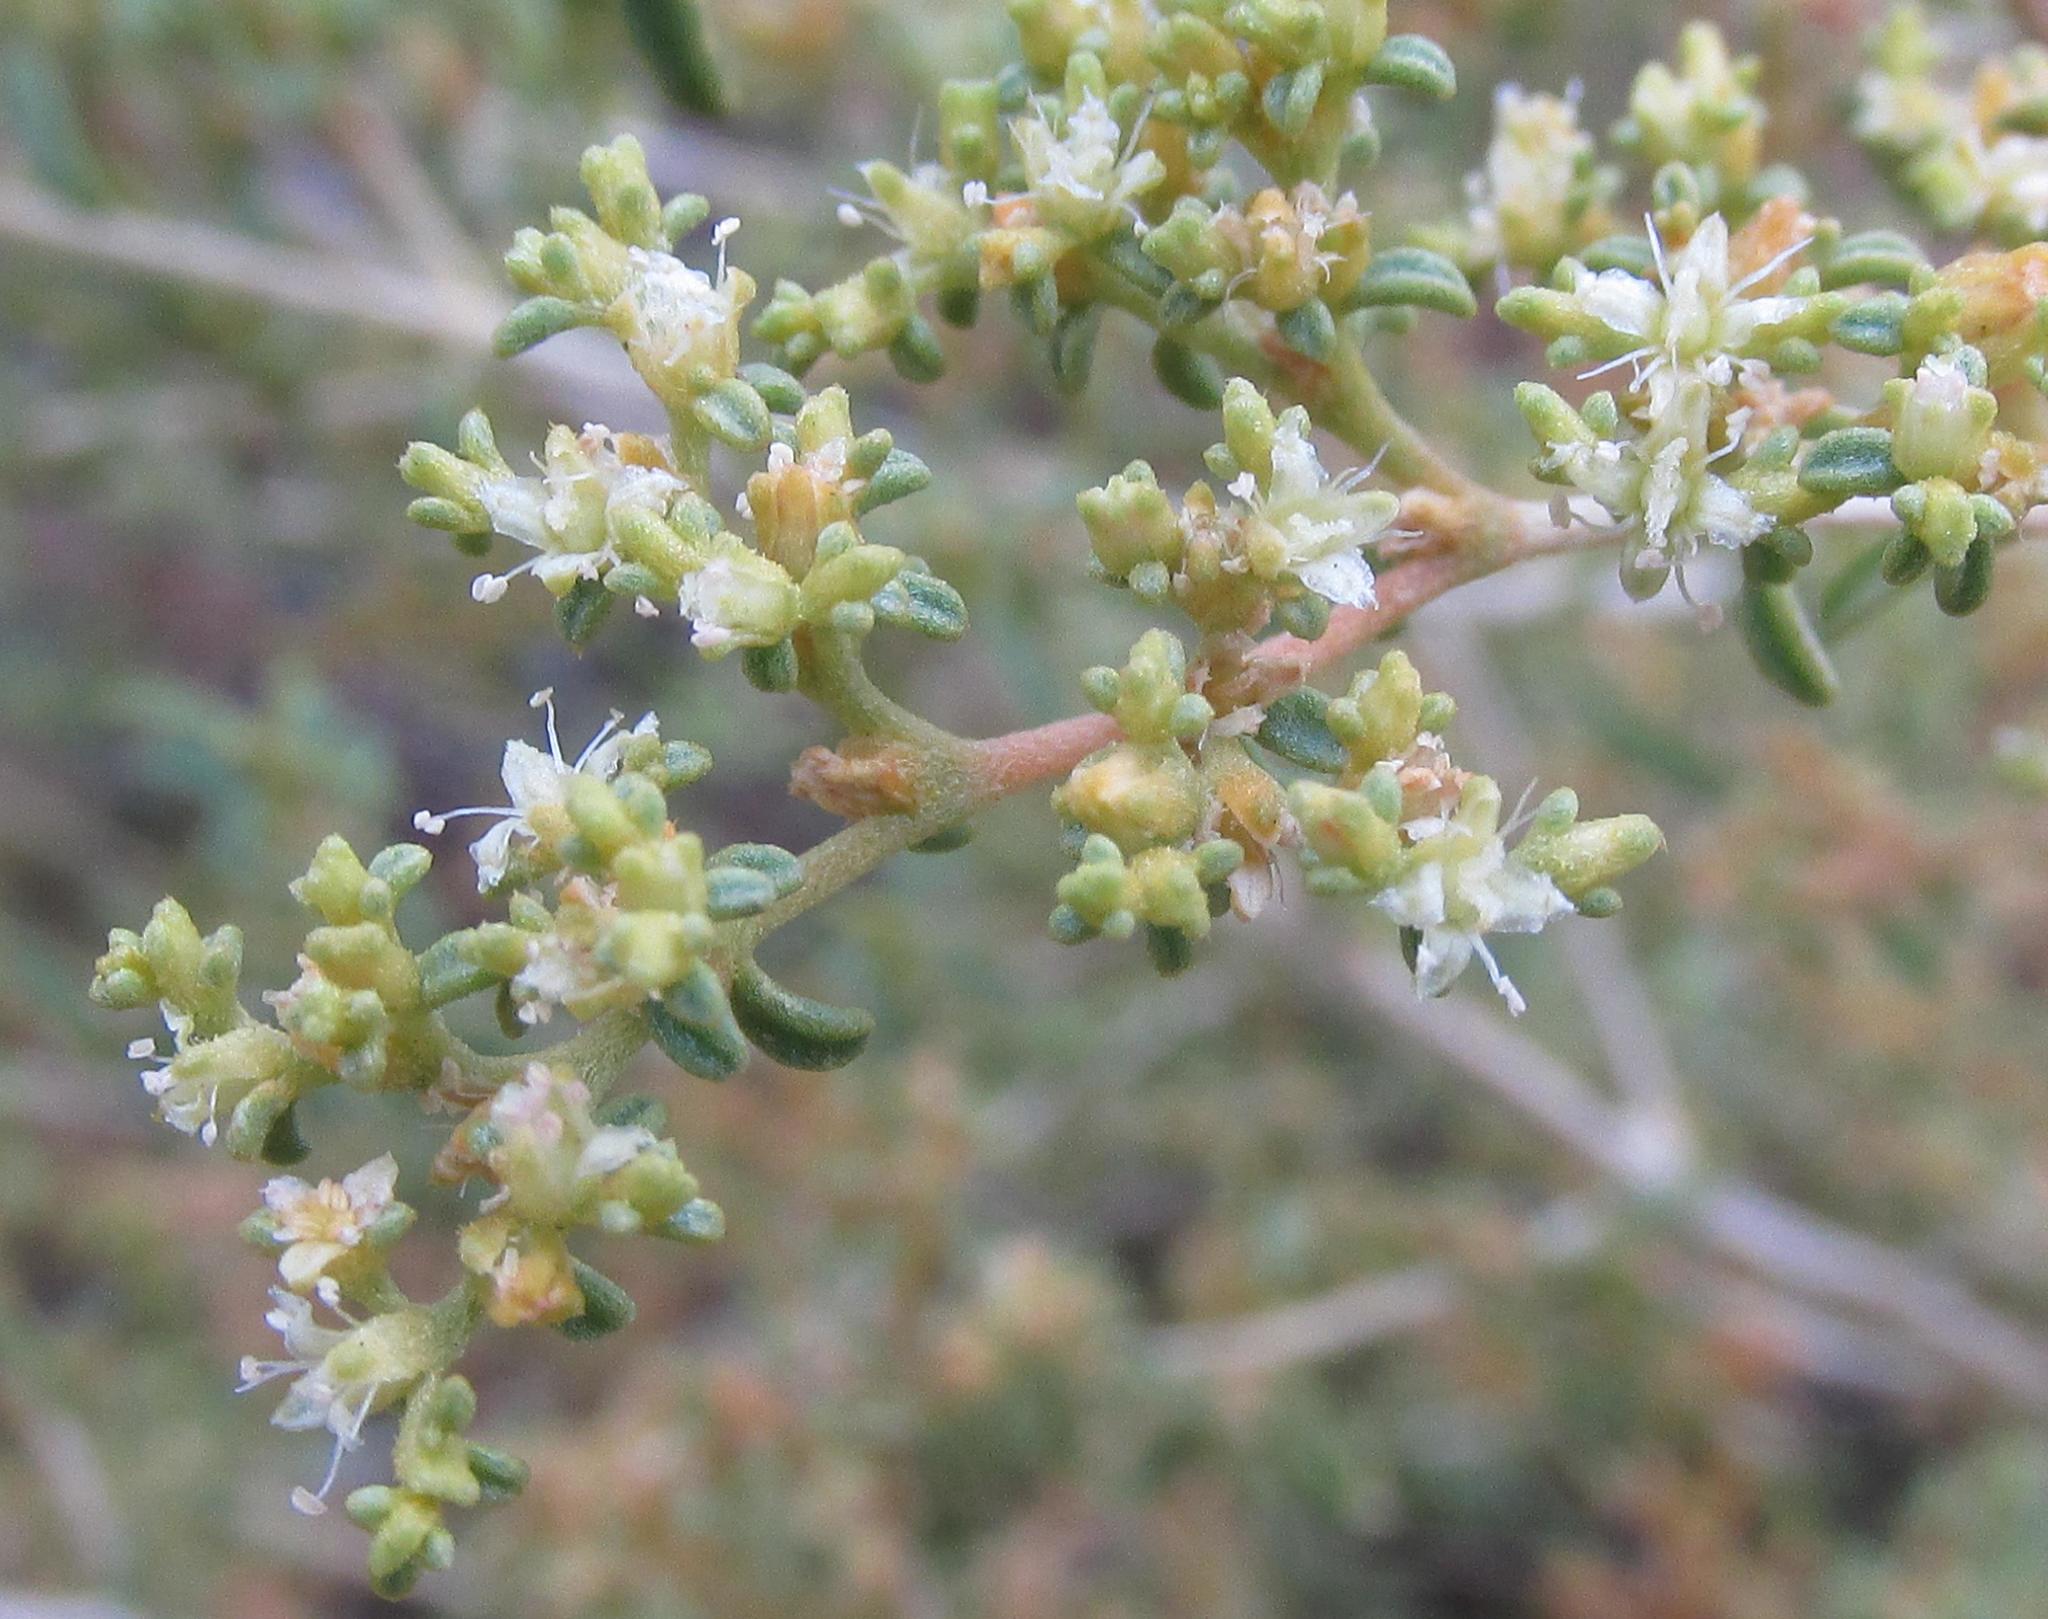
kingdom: Plantae
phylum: Tracheophyta
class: Magnoliopsida
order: Caryophyllales
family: Aizoaceae
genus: Aizoon
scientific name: Aizoon namaense
